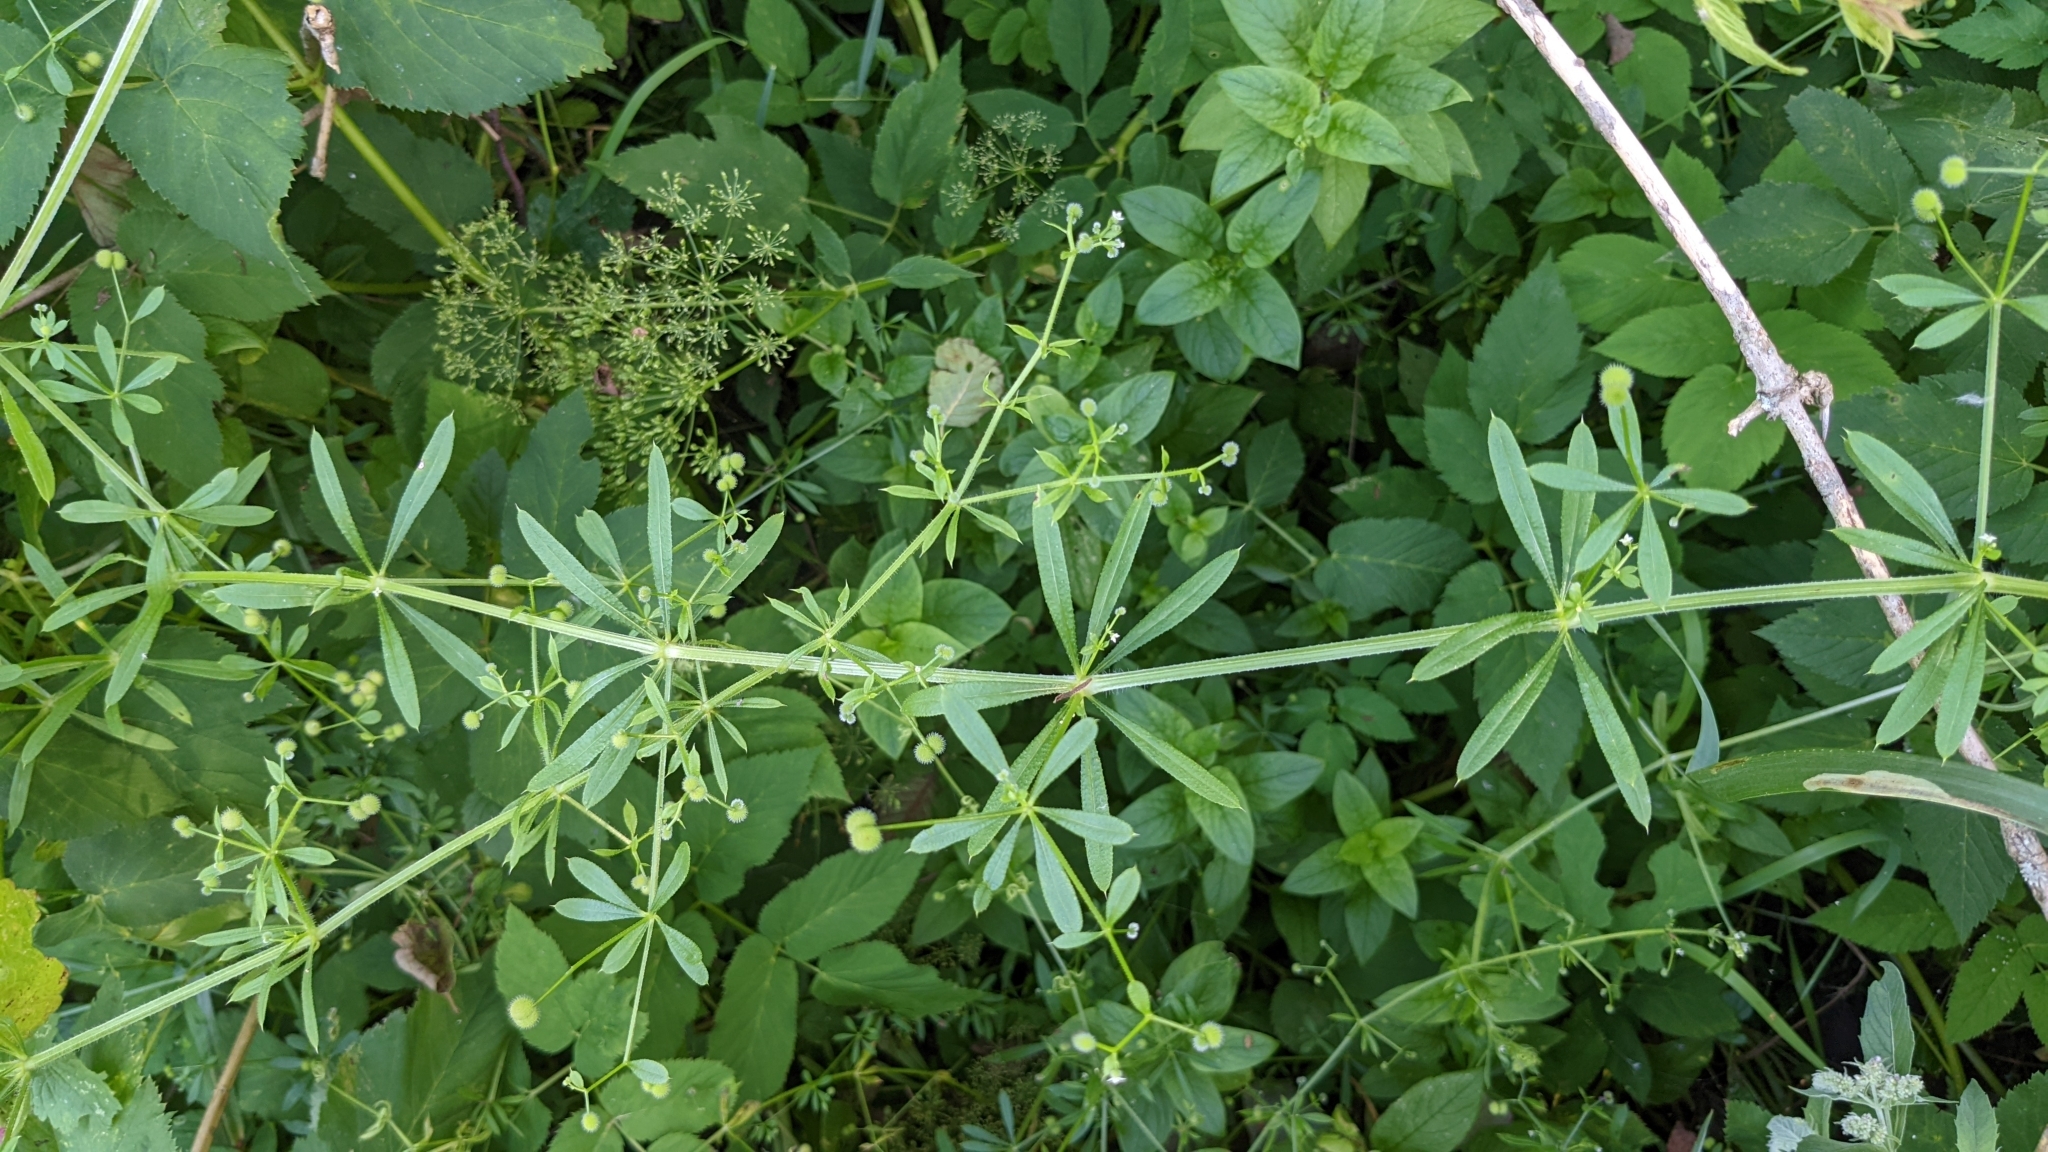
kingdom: Plantae
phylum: Tracheophyta
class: Magnoliopsida
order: Gentianales
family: Rubiaceae
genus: Galium
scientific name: Galium aparine
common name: Cleavers
